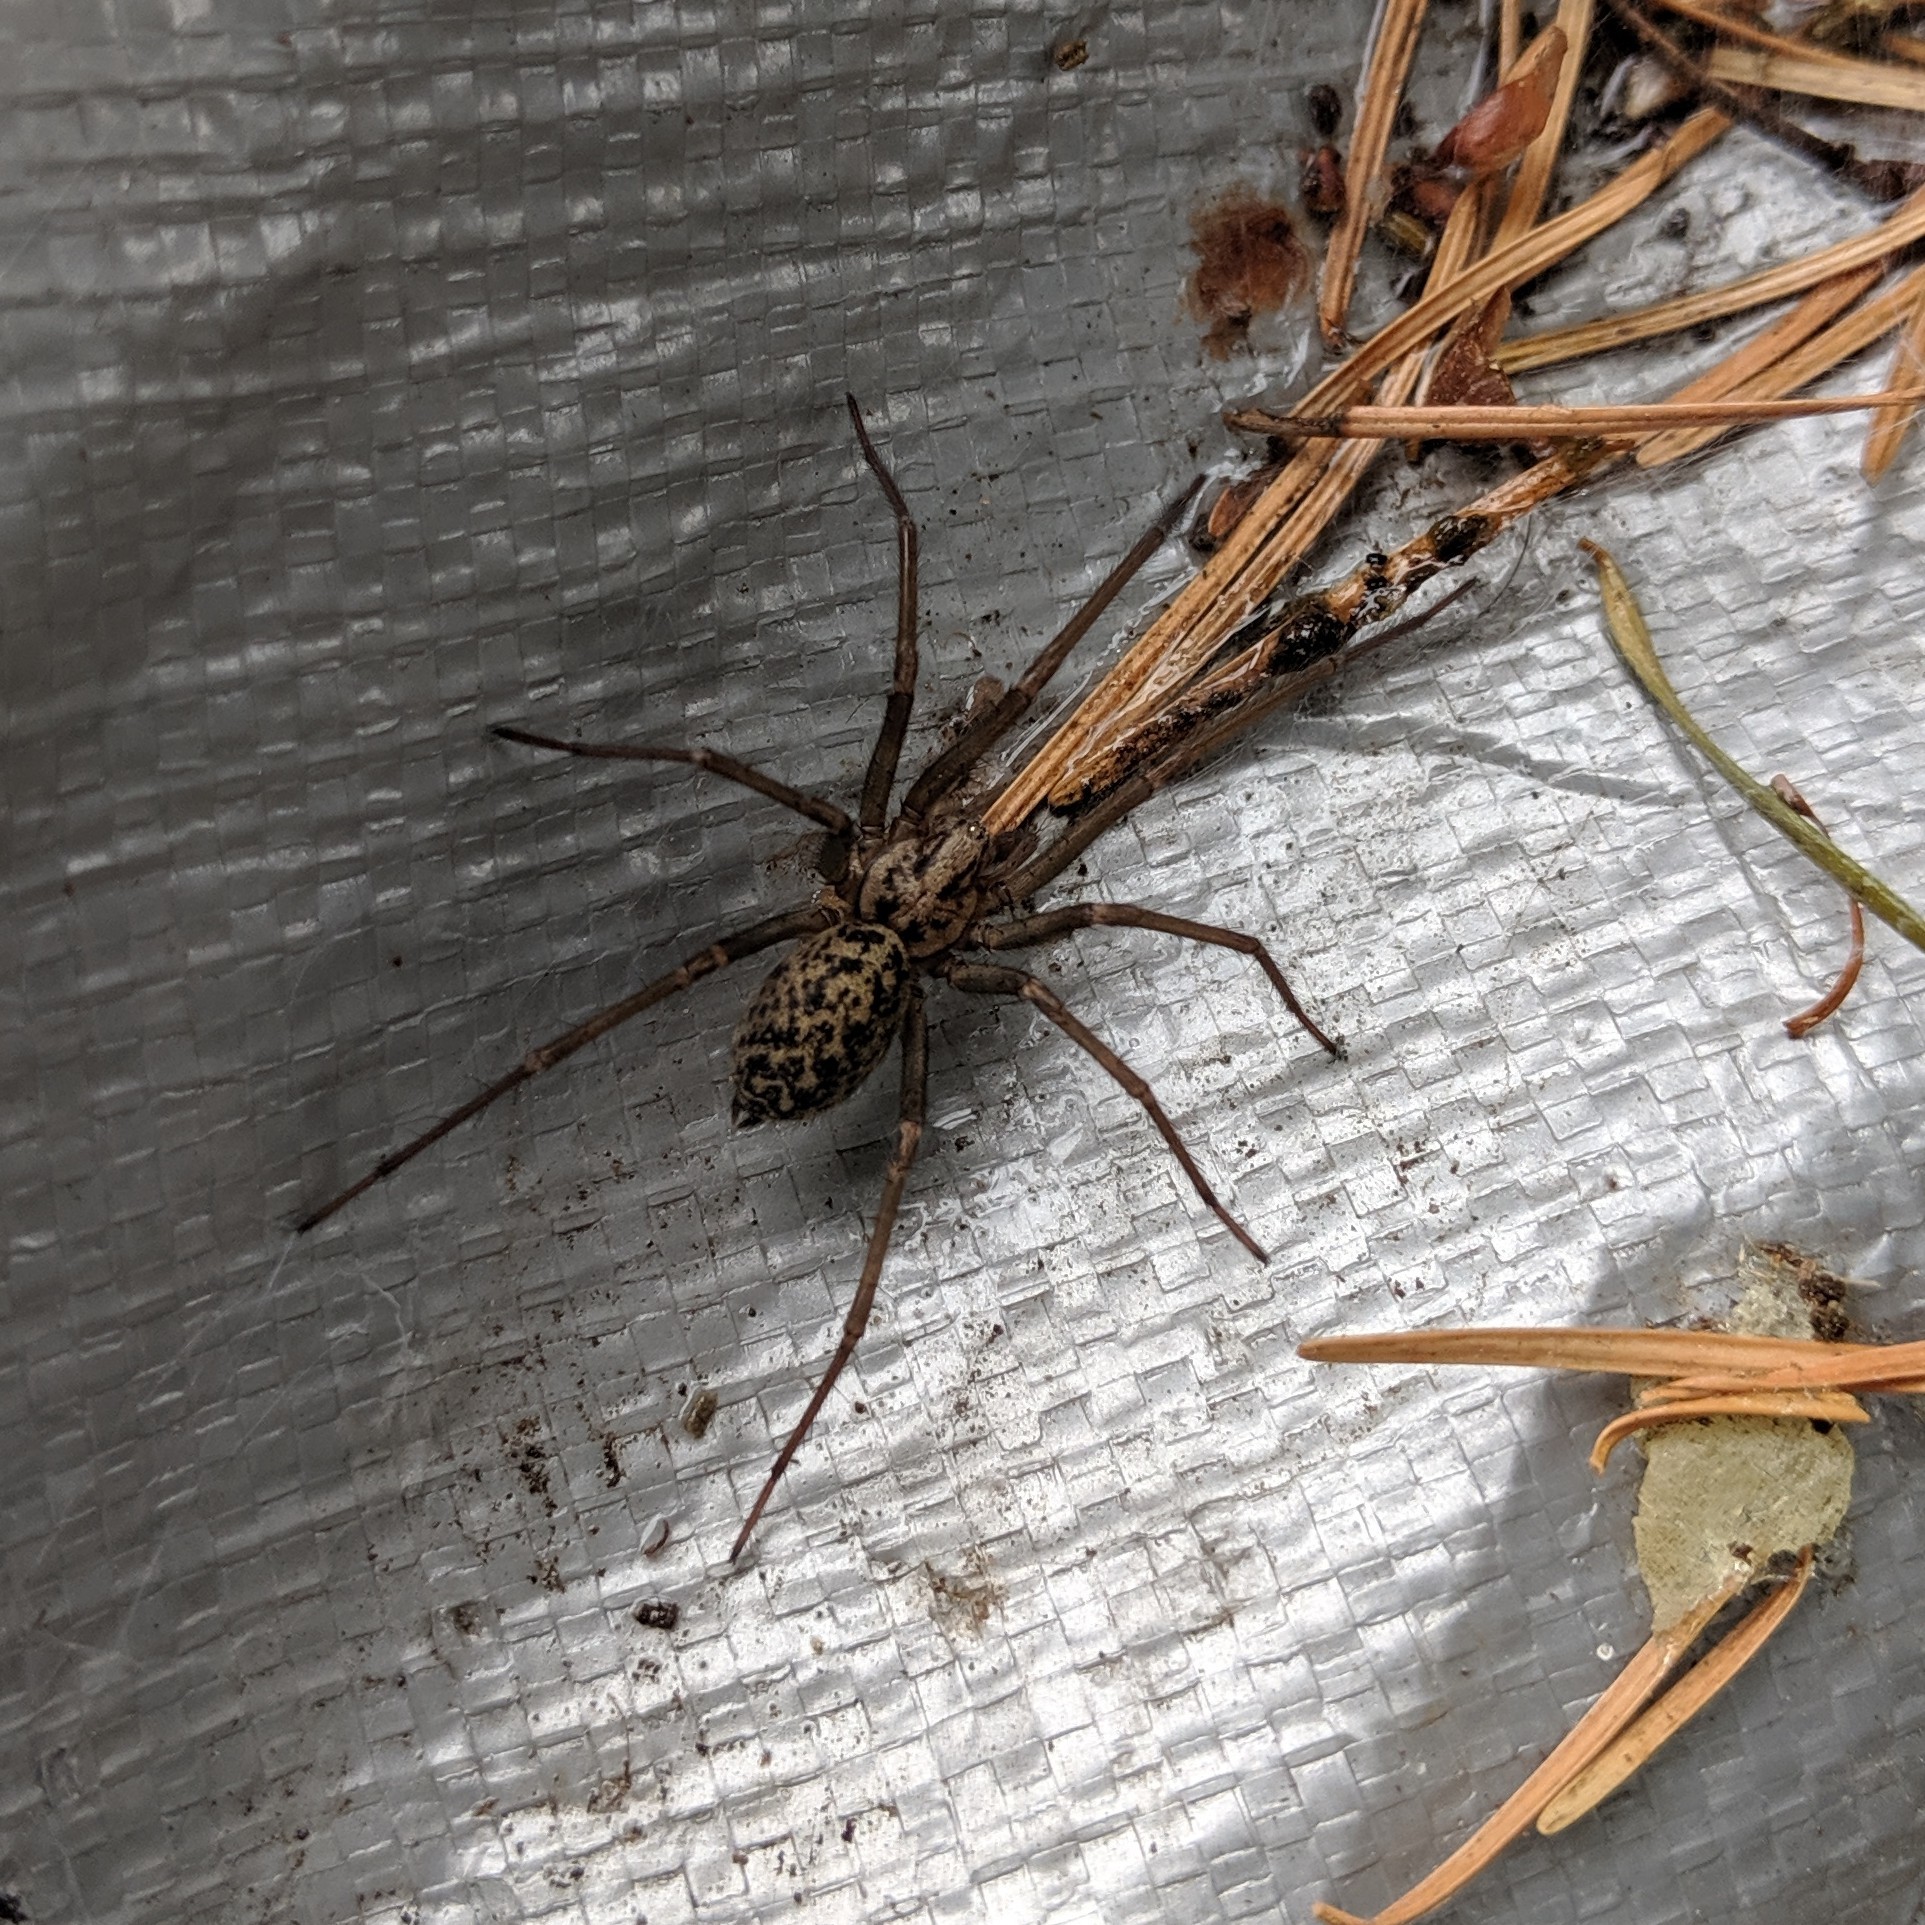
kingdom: Animalia
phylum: Arthropoda
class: Arachnida
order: Araneae
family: Agelenidae
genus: Eratigena
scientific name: Eratigena duellica
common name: Giant house spider
